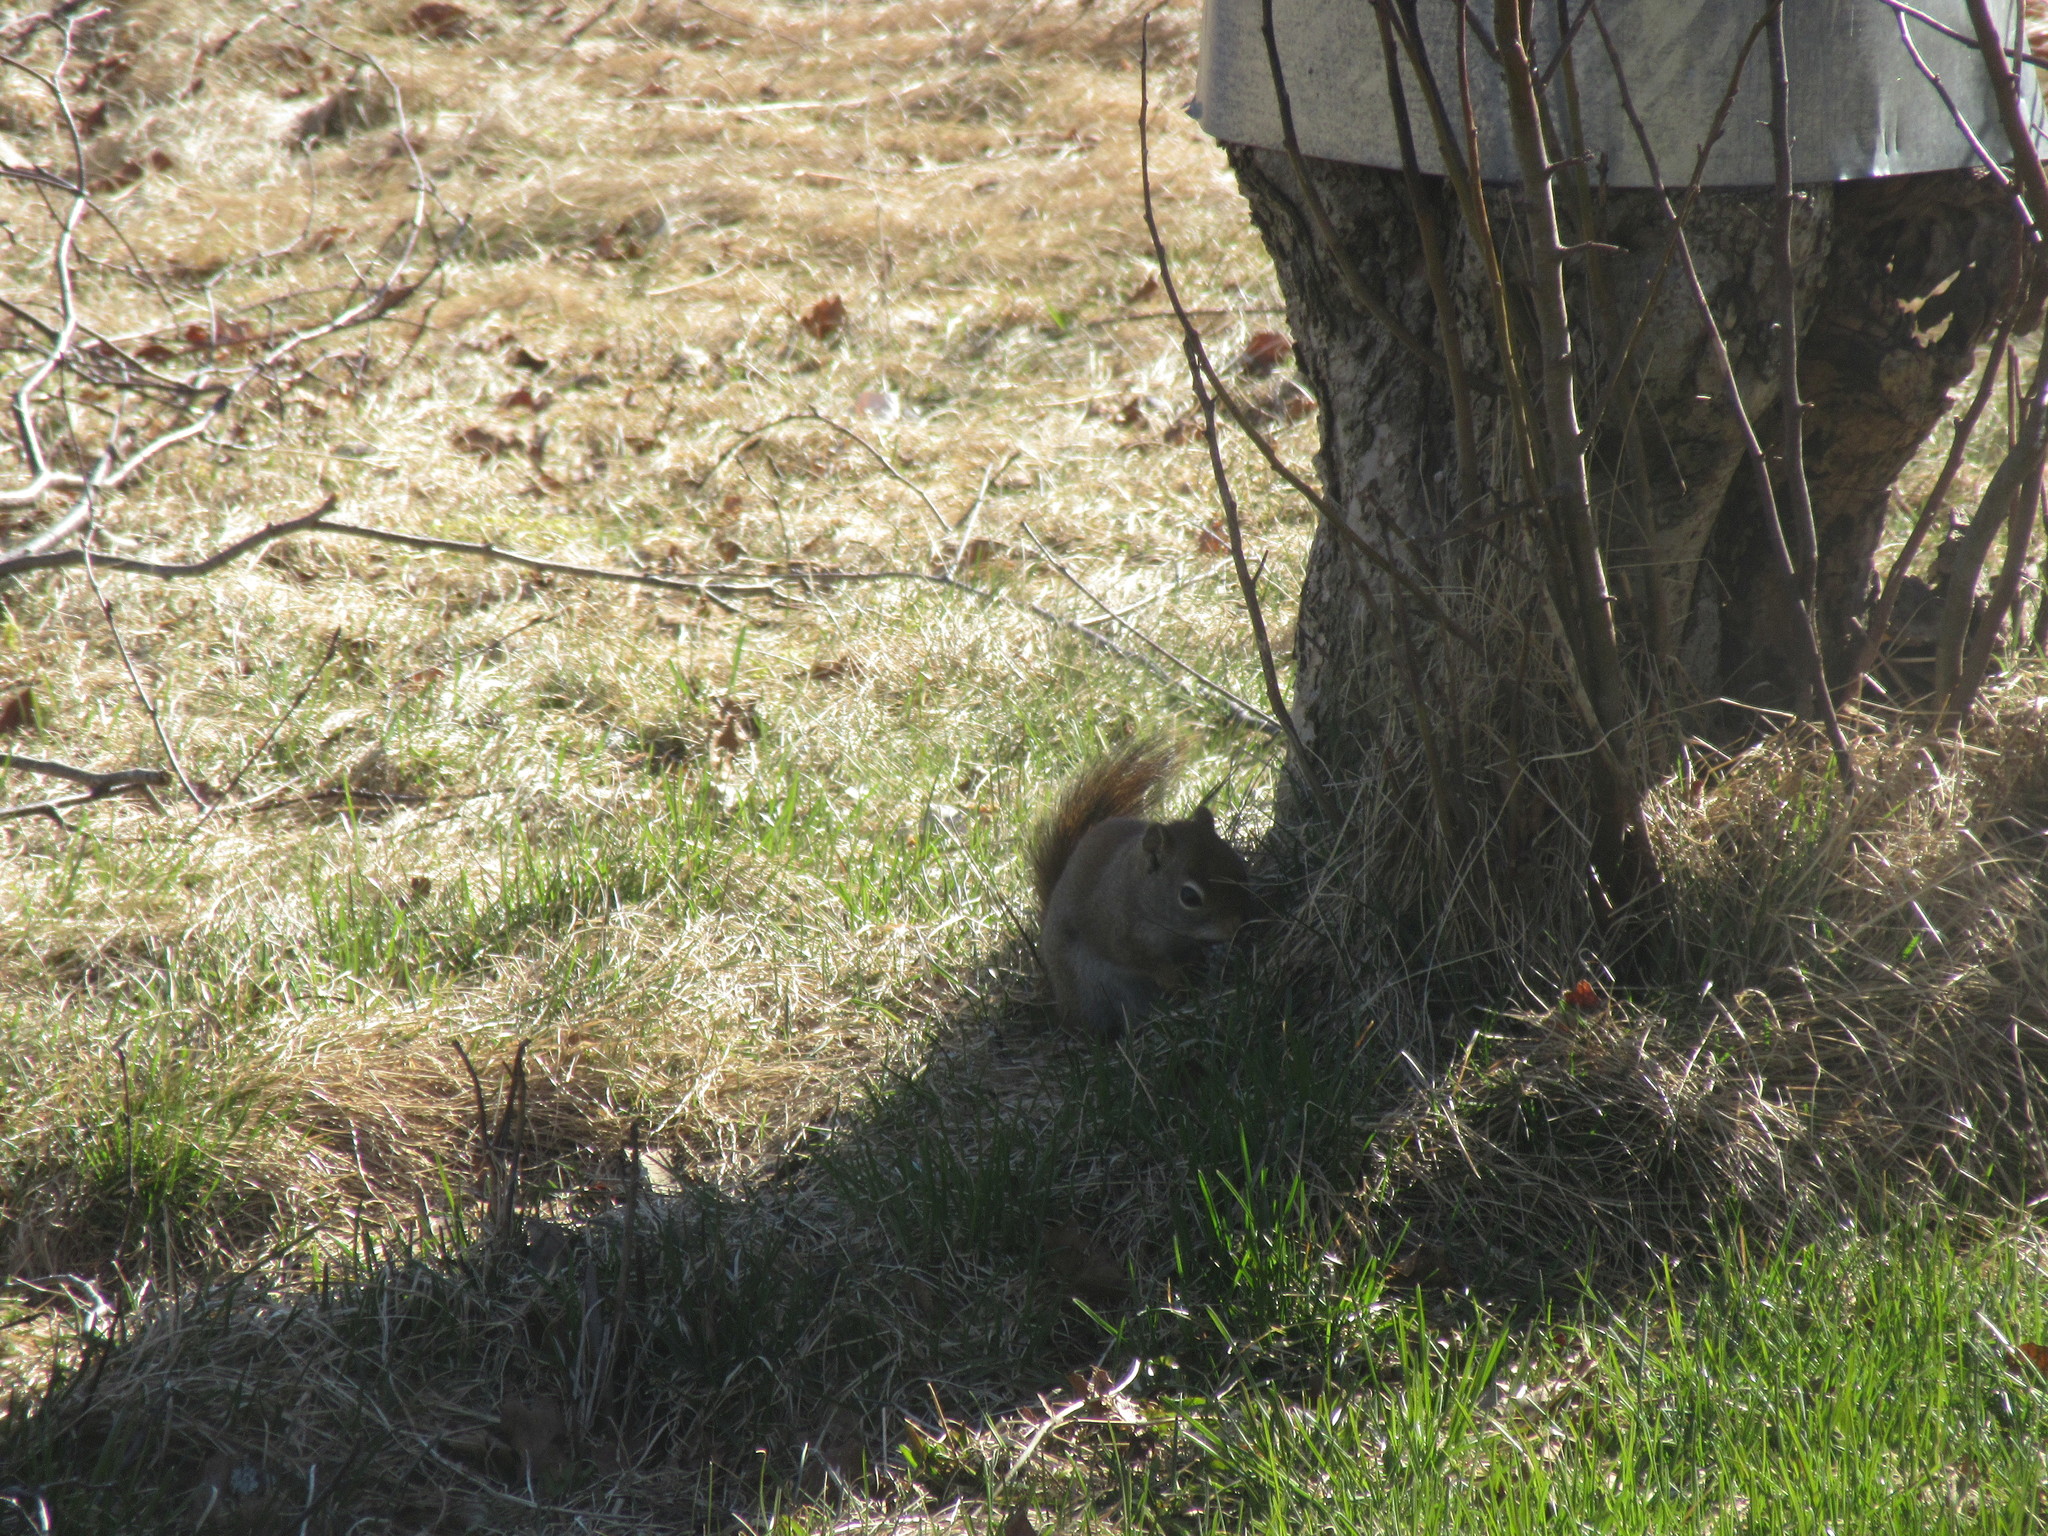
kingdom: Animalia
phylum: Chordata
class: Mammalia
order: Rodentia
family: Sciuridae
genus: Tamiasciurus
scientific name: Tamiasciurus hudsonicus
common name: Red squirrel
